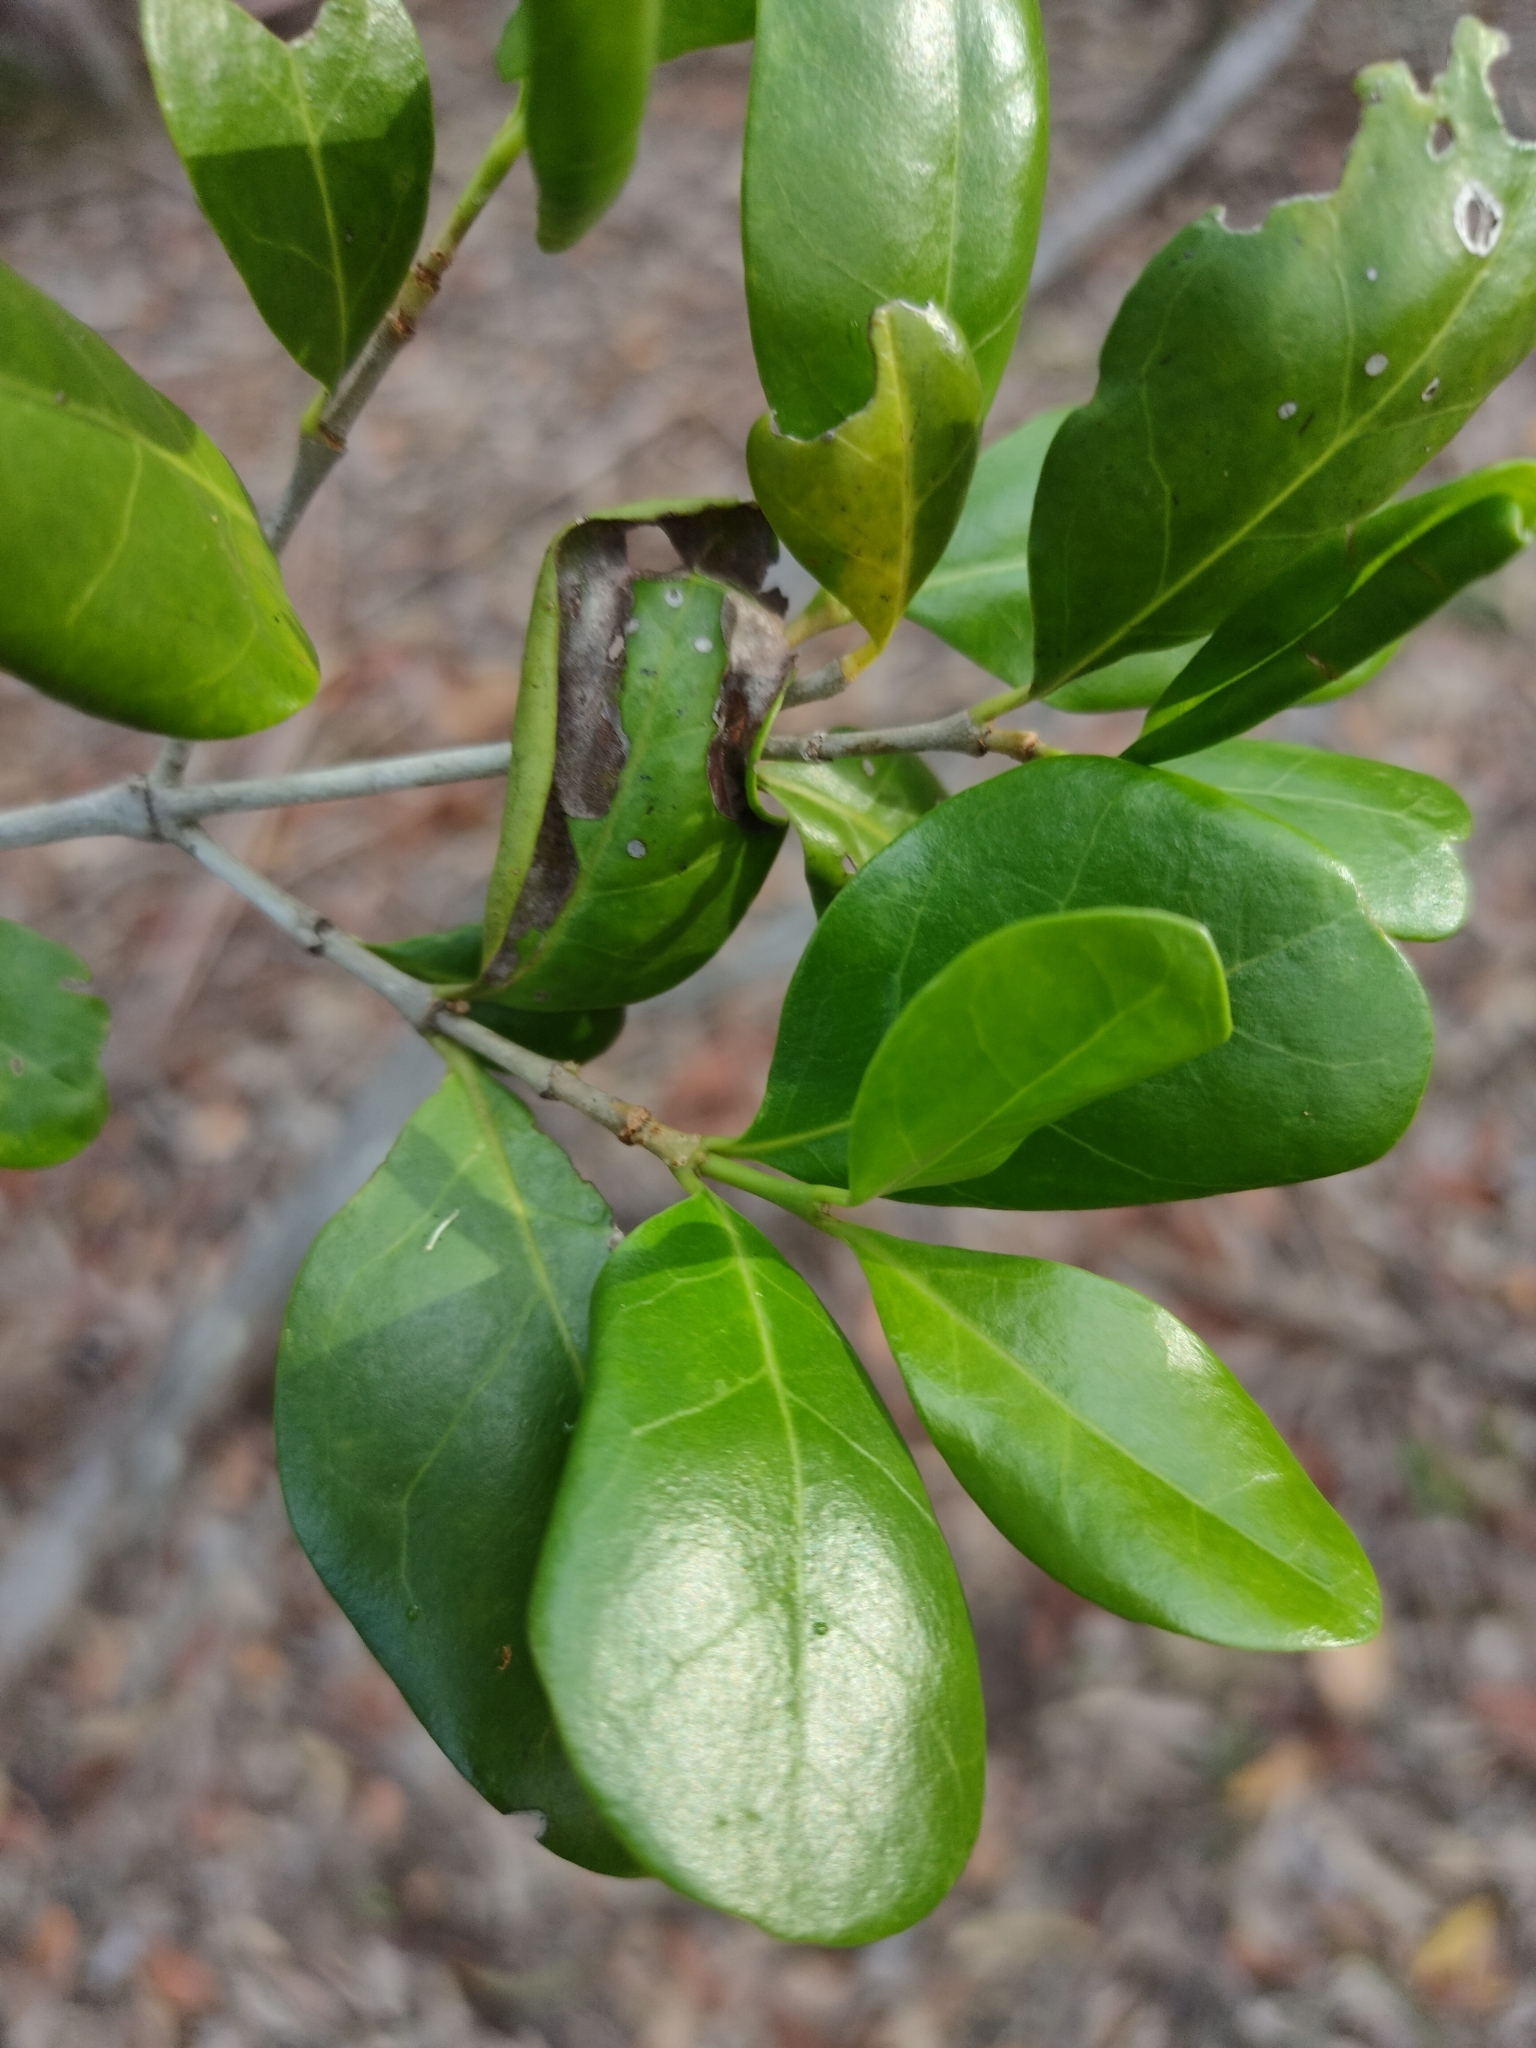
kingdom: Plantae
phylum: Tracheophyta
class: Magnoliopsida
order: Gentianales
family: Rubiaceae
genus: Cyclophyllum
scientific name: Cyclophyllum coprosmoides
